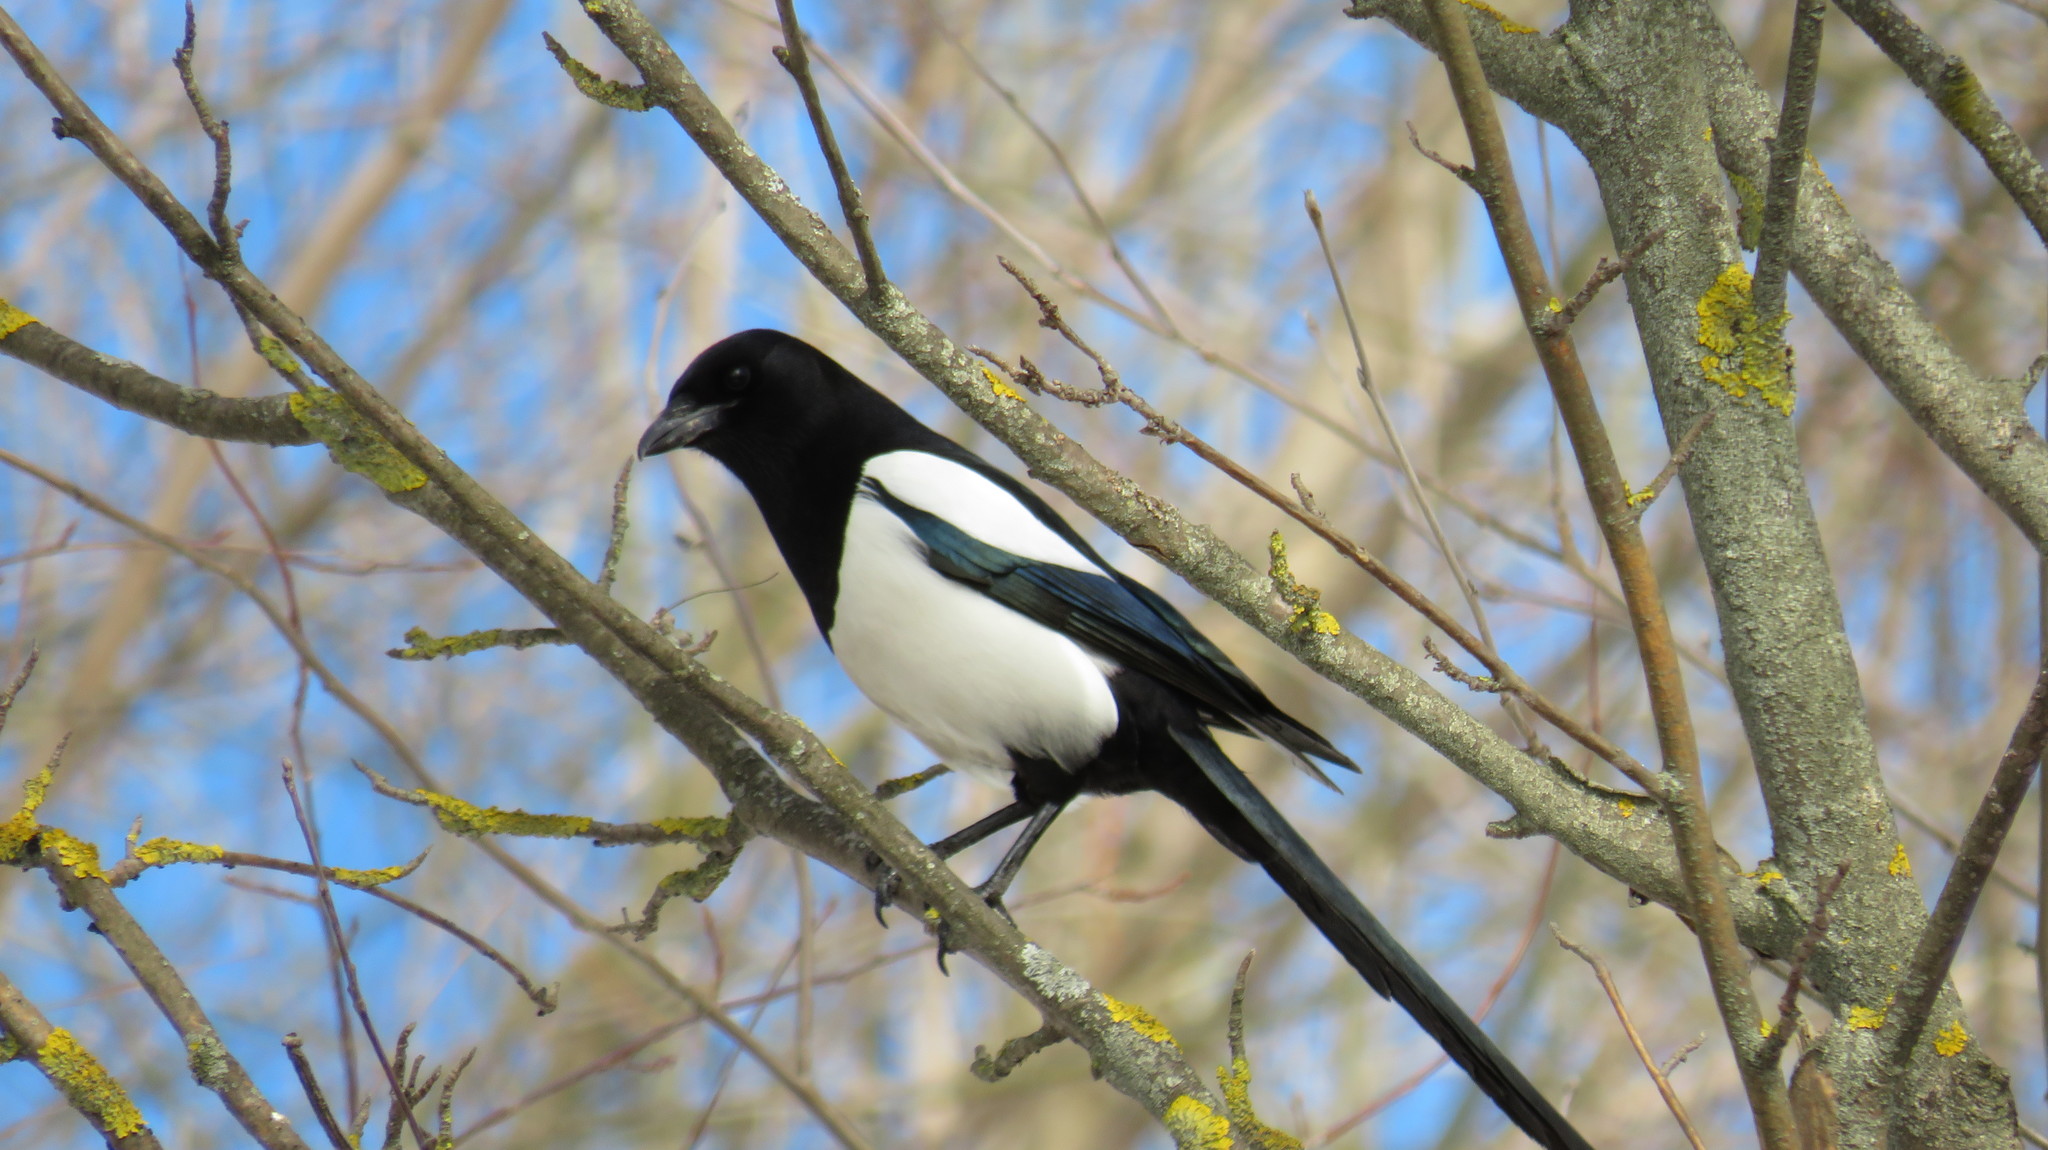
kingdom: Animalia
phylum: Chordata
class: Aves
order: Passeriformes
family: Corvidae
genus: Pica
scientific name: Pica pica
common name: Eurasian magpie
